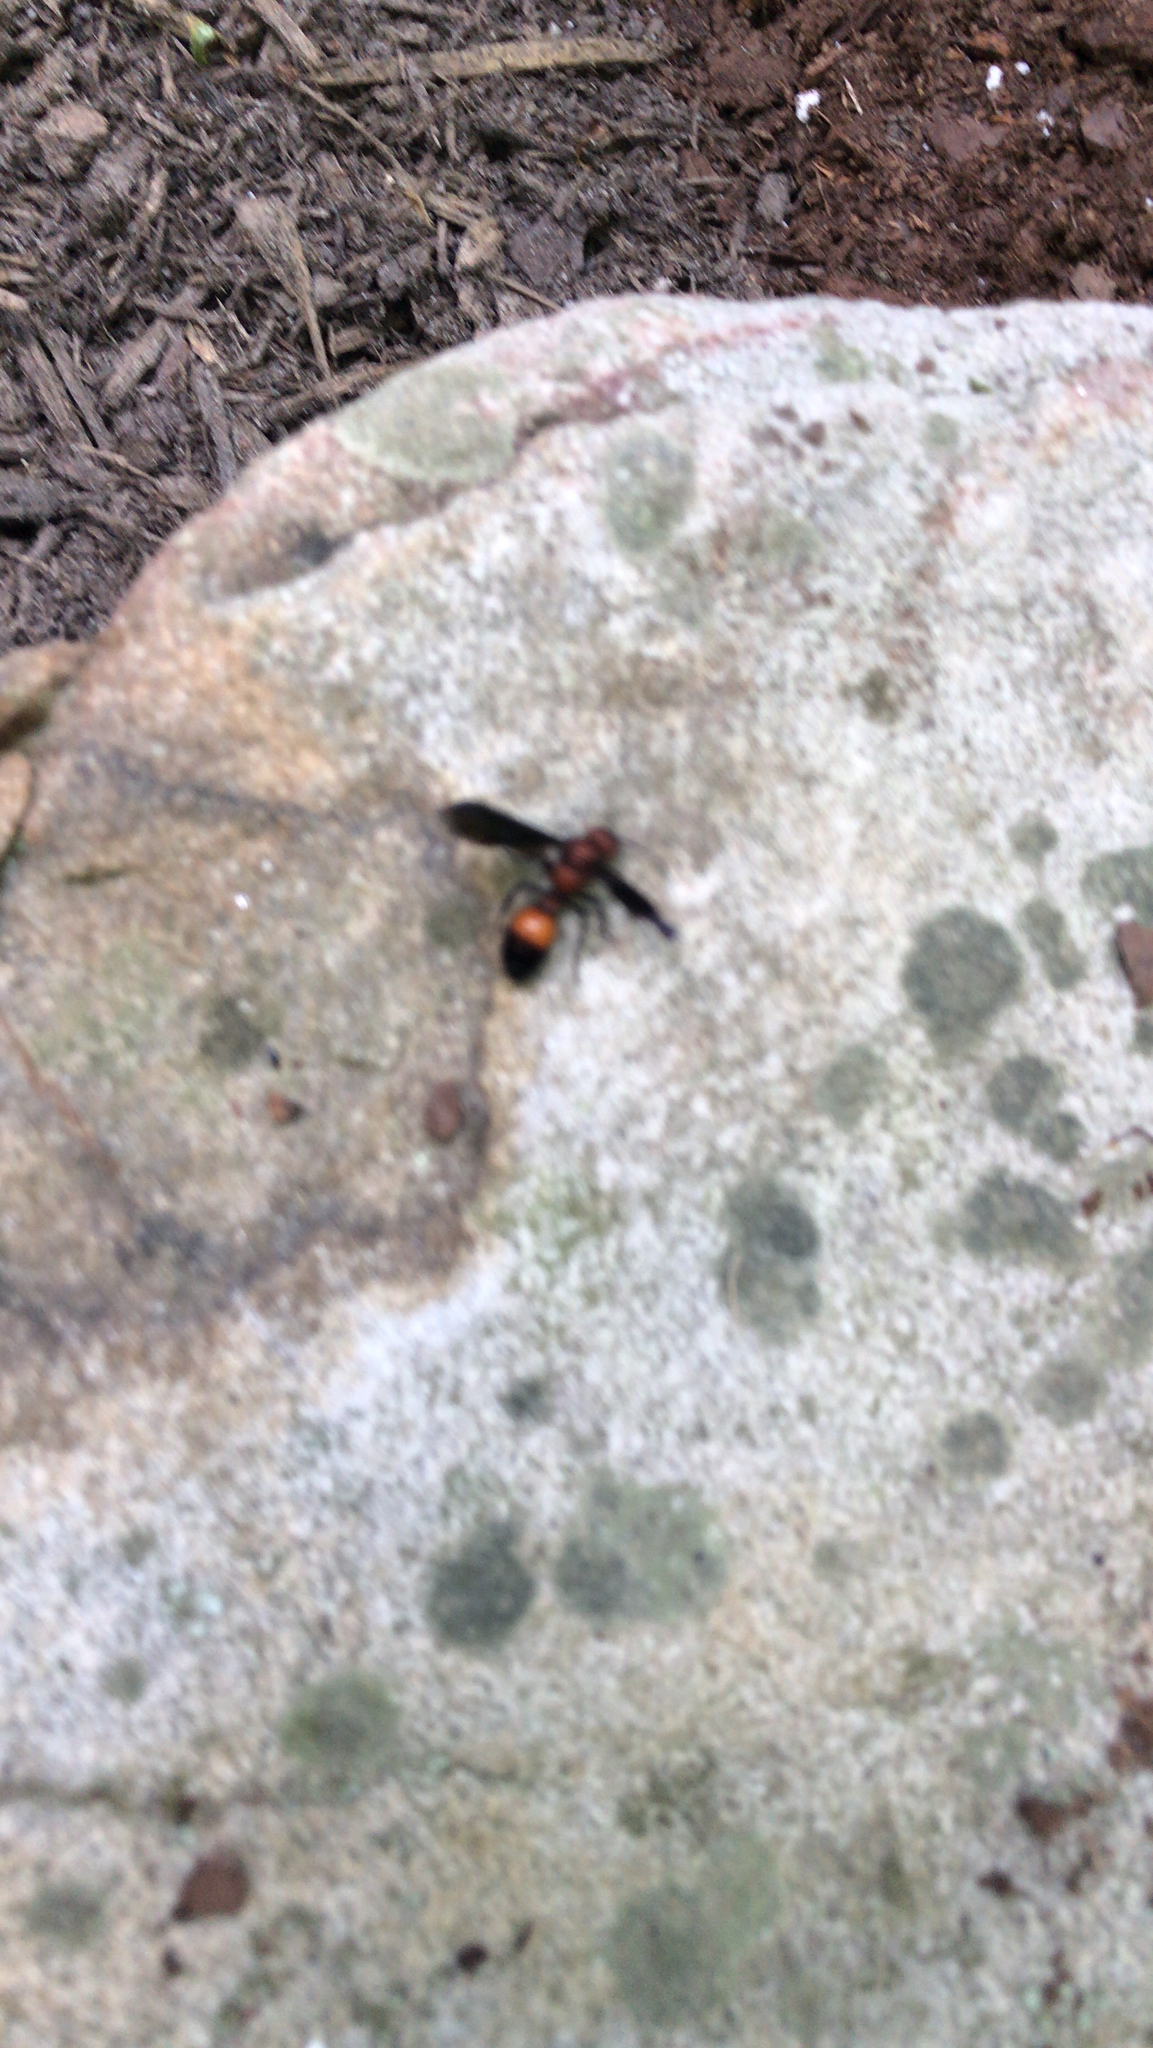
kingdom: Animalia
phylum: Arthropoda
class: Insecta
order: Hymenoptera
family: Mutillidae
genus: Sphaeropthalma
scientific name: Sphaeropthalma
